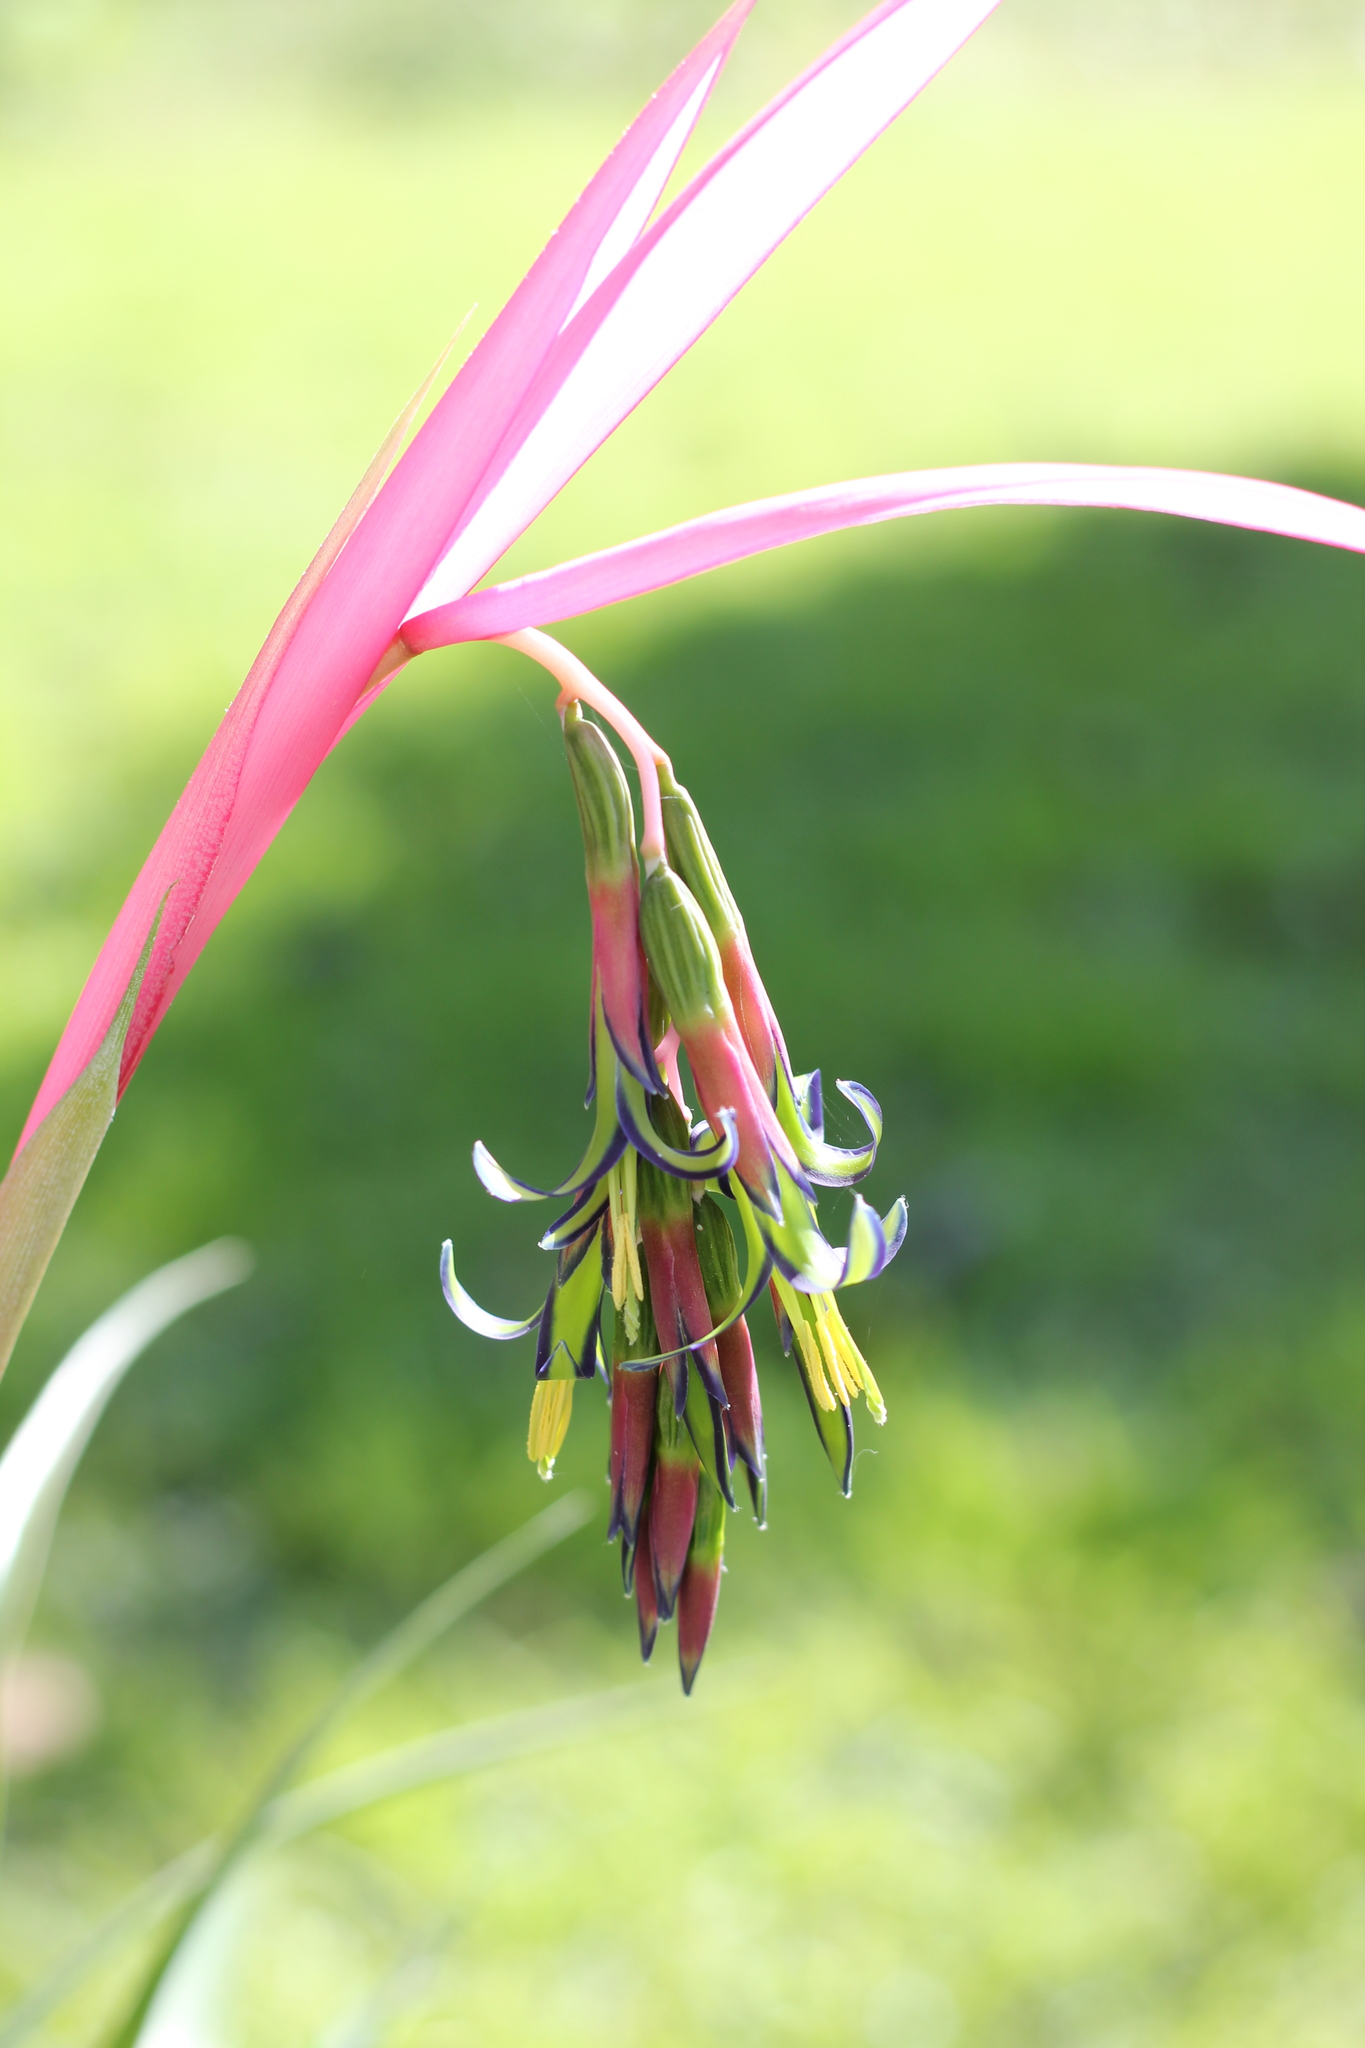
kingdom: Plantae
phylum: Tracheophyta
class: Liliopsida
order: Poales
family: Bromeliaceae
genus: Billbergia
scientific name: Billbergia nutans
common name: Friendship-plant
